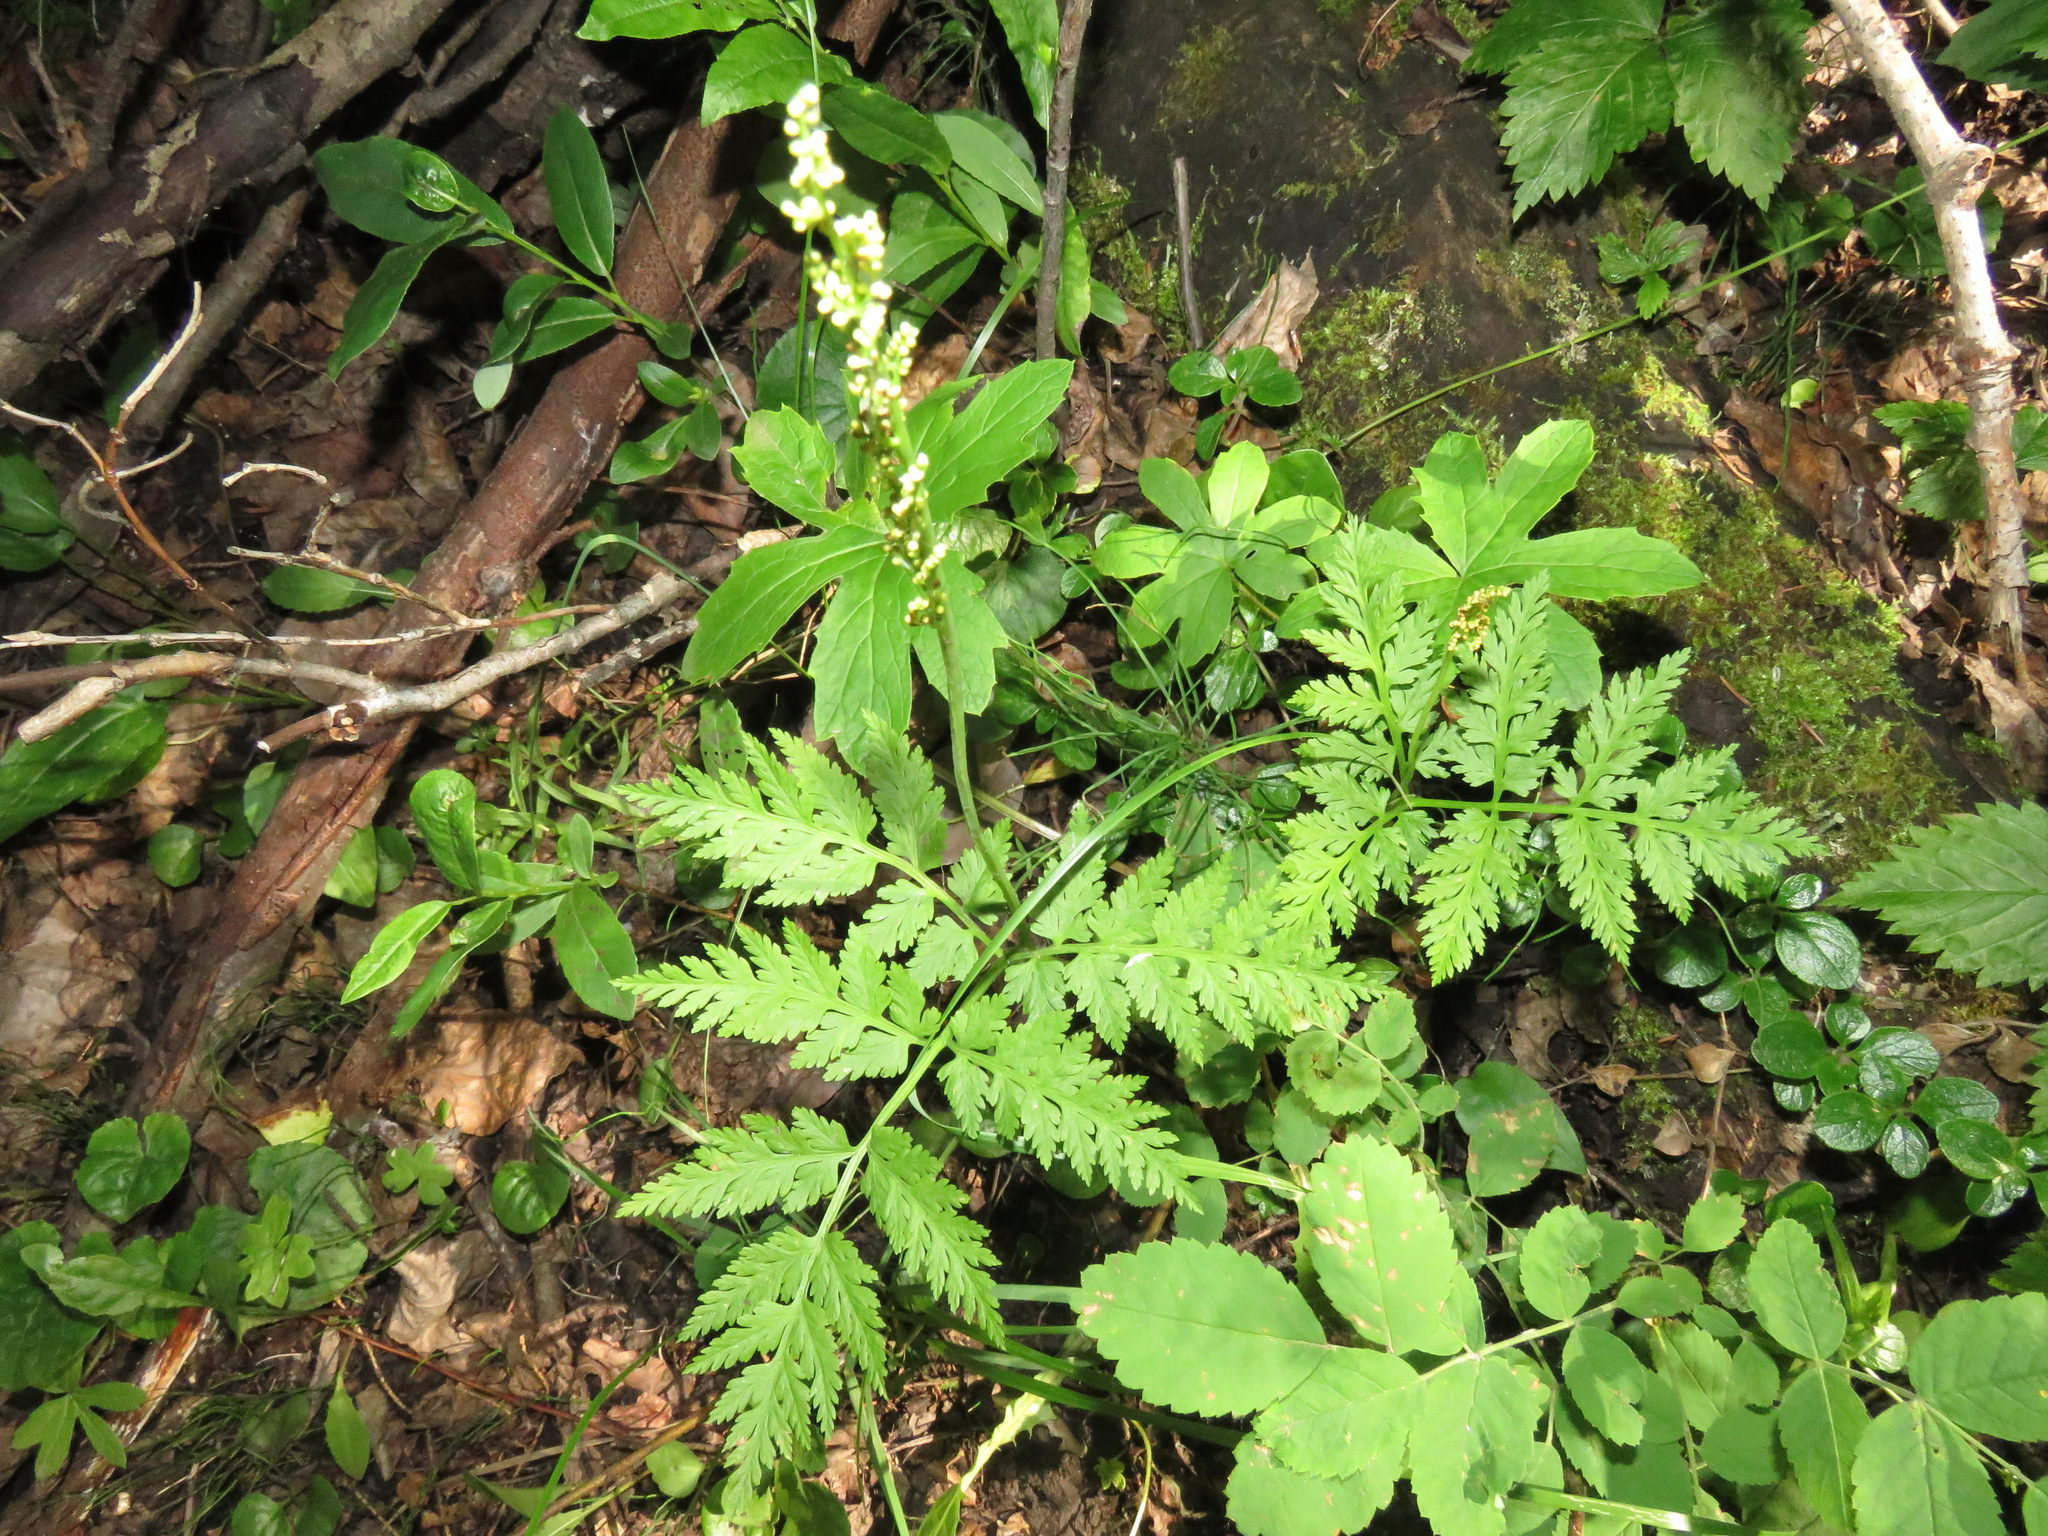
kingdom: Plantae
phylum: Tracheophyta
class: Polypodiopsida
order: Ophioglossales
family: Ophioglossaceae
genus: Botrypus
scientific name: Botrypus virginianus
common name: Common grapefern
